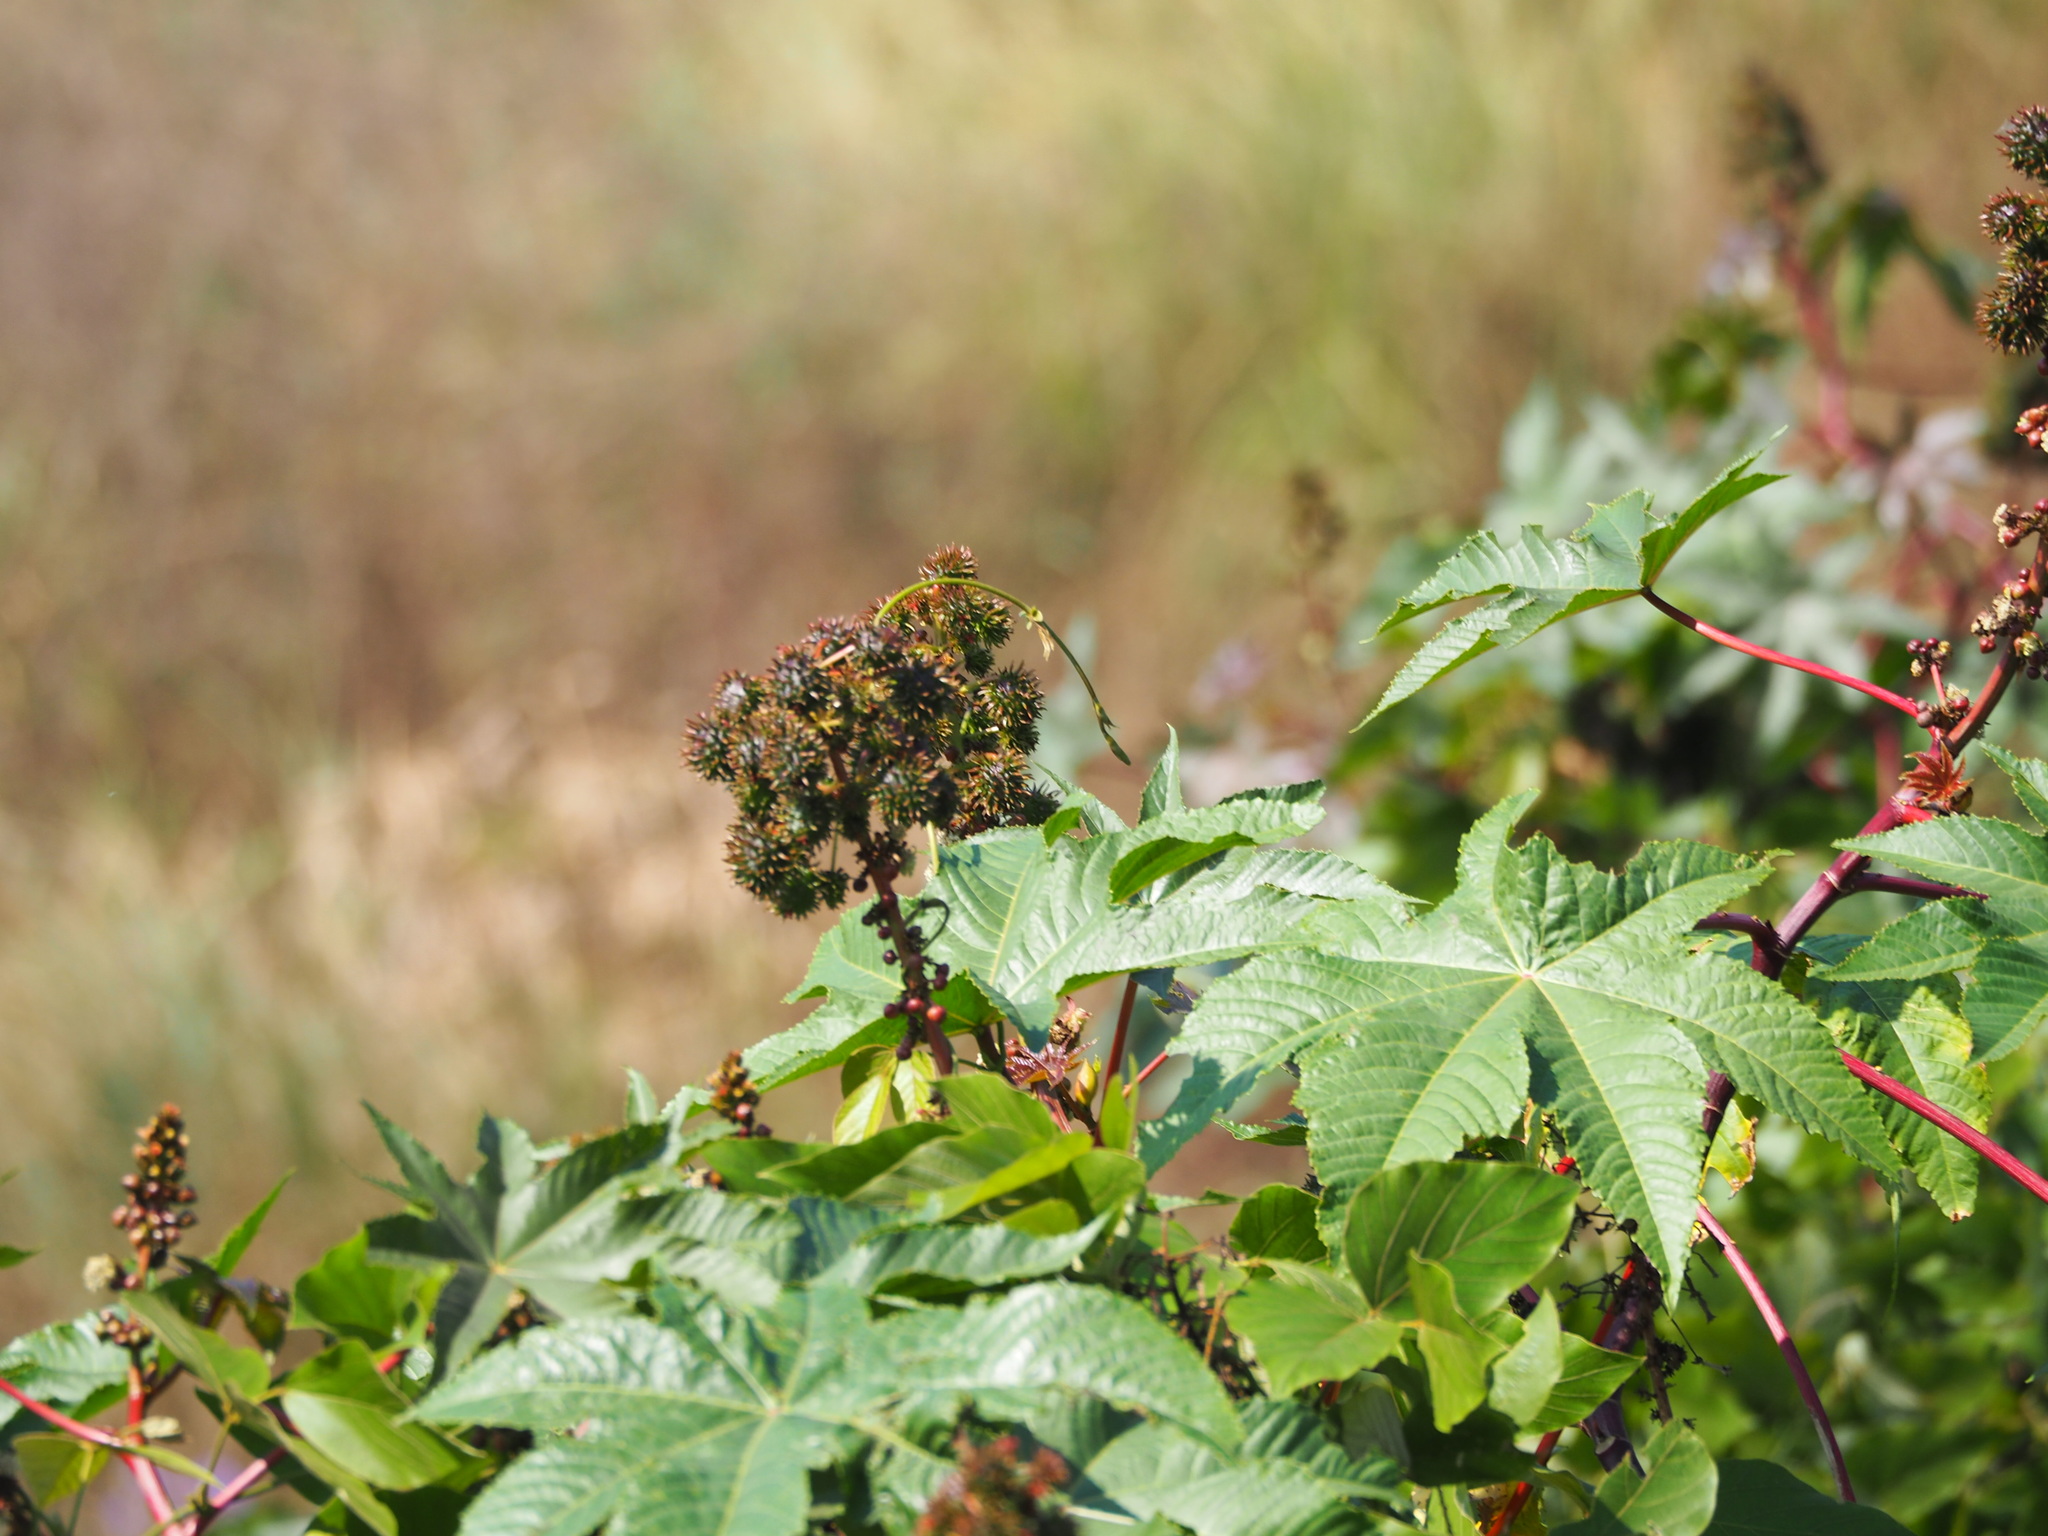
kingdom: Plantae
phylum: Tracheophyta
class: Magnoliopsida
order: Malpighiales
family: Euphorbiaceae
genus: Ricinus
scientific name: Ricinus communis
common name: Castor-oil-plant
